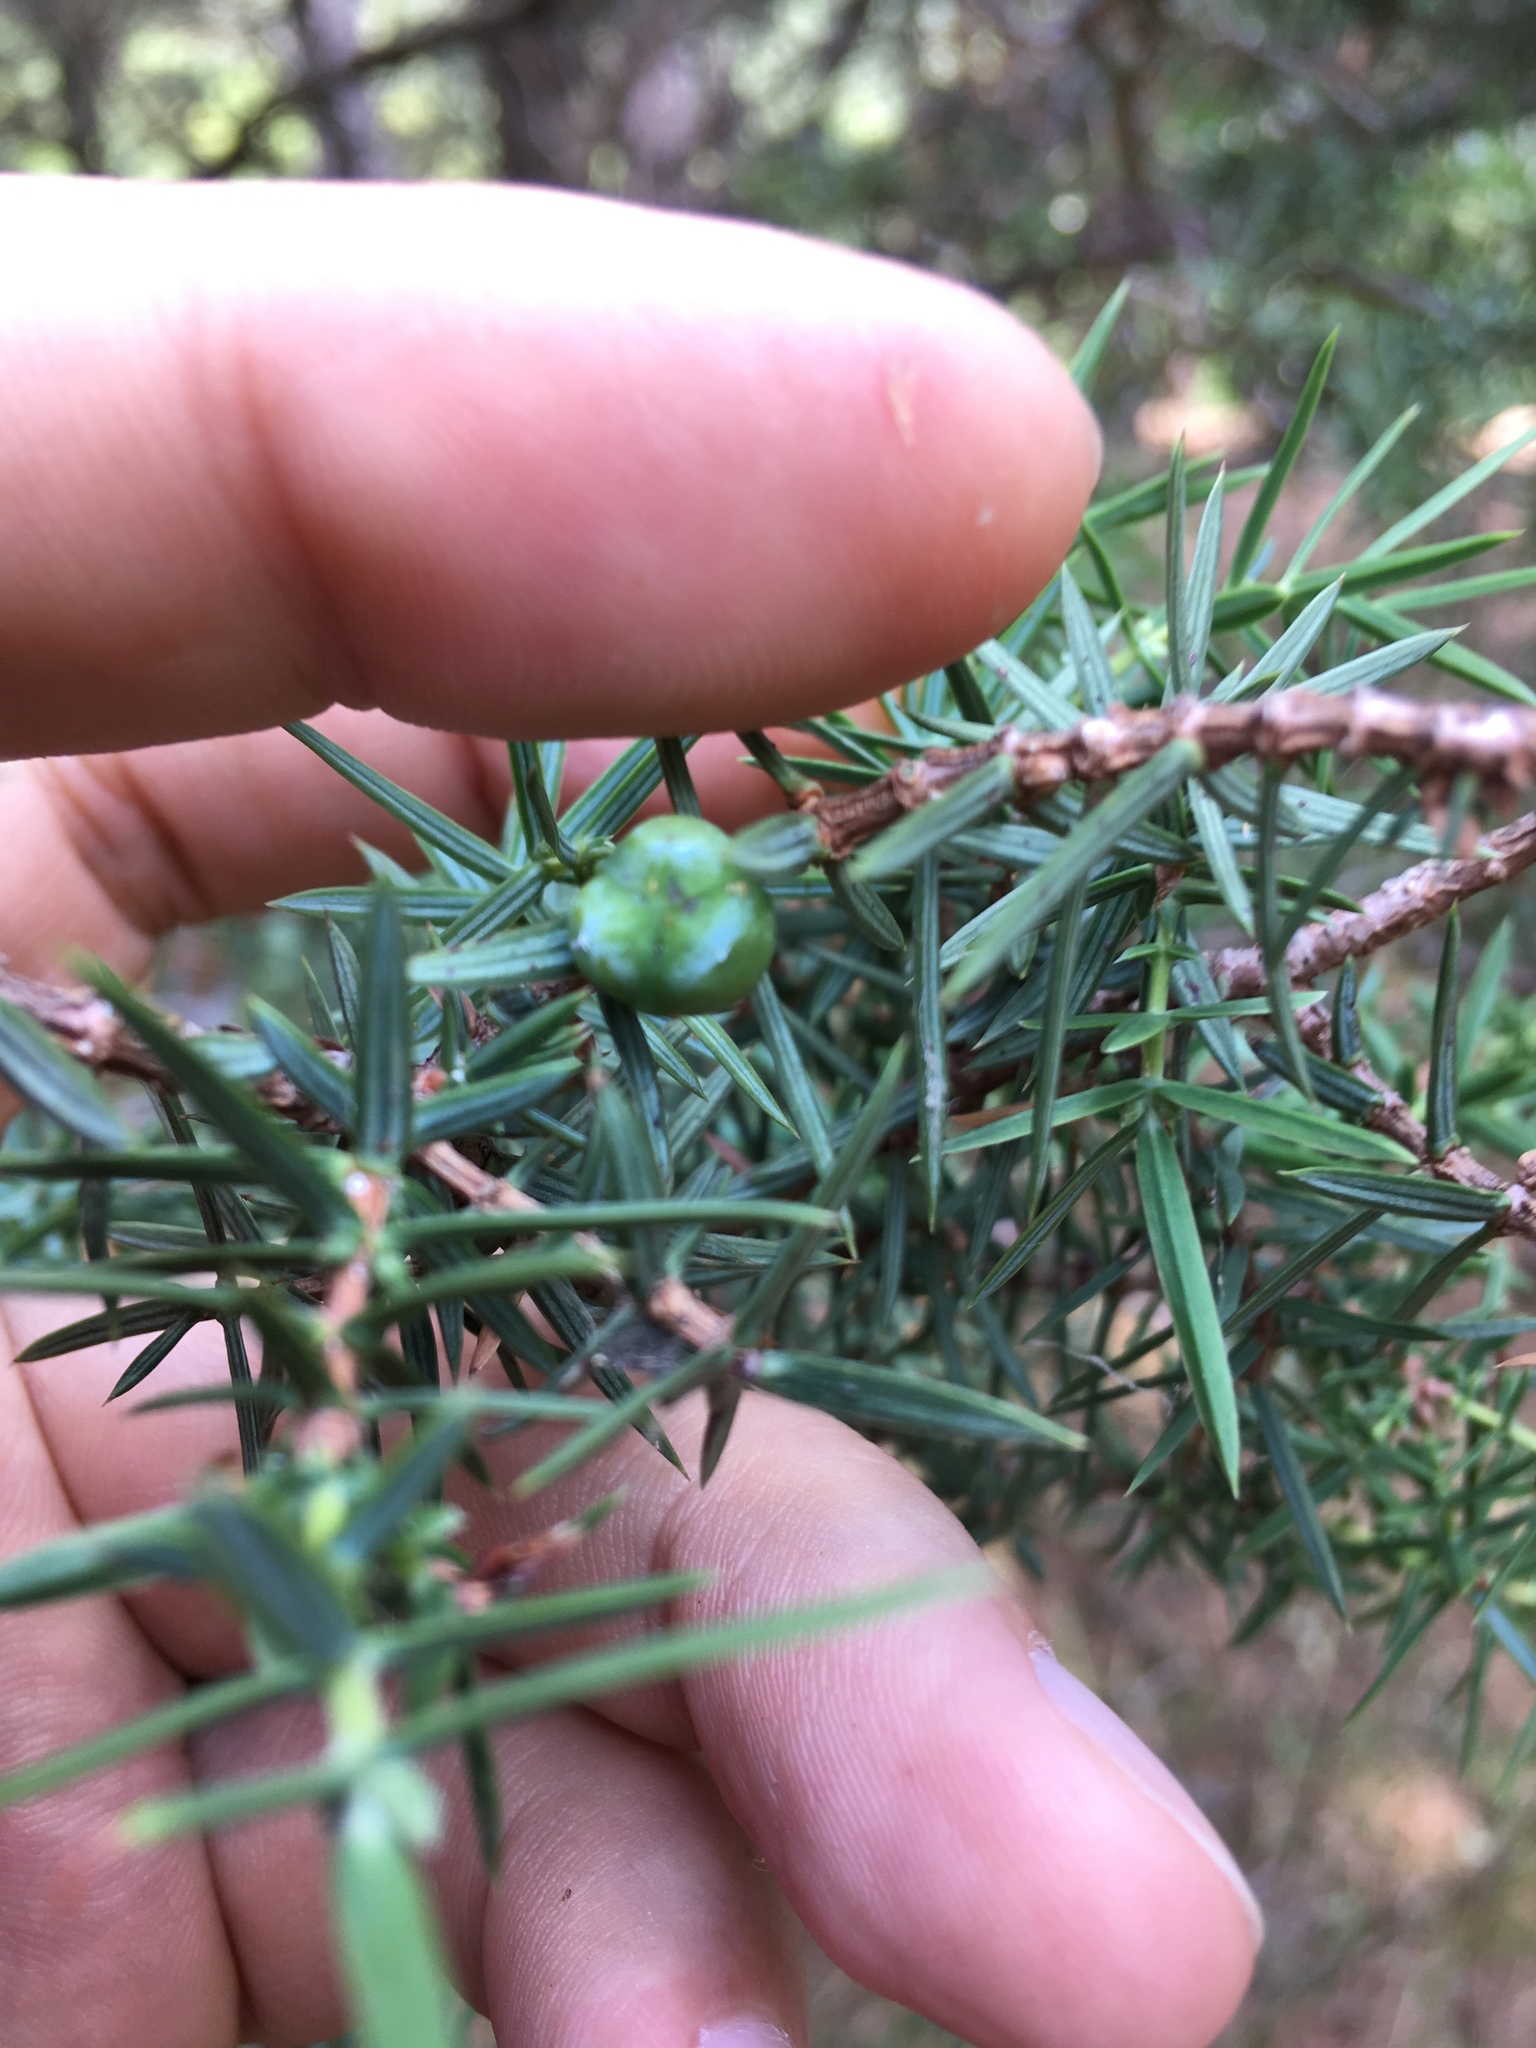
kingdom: Plantae
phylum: Tracheophyta
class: Pinopsida
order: Pinales
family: Cupressaceae
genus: Juniperus
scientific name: Juniperus oxycedrus
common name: Prickly juniper
